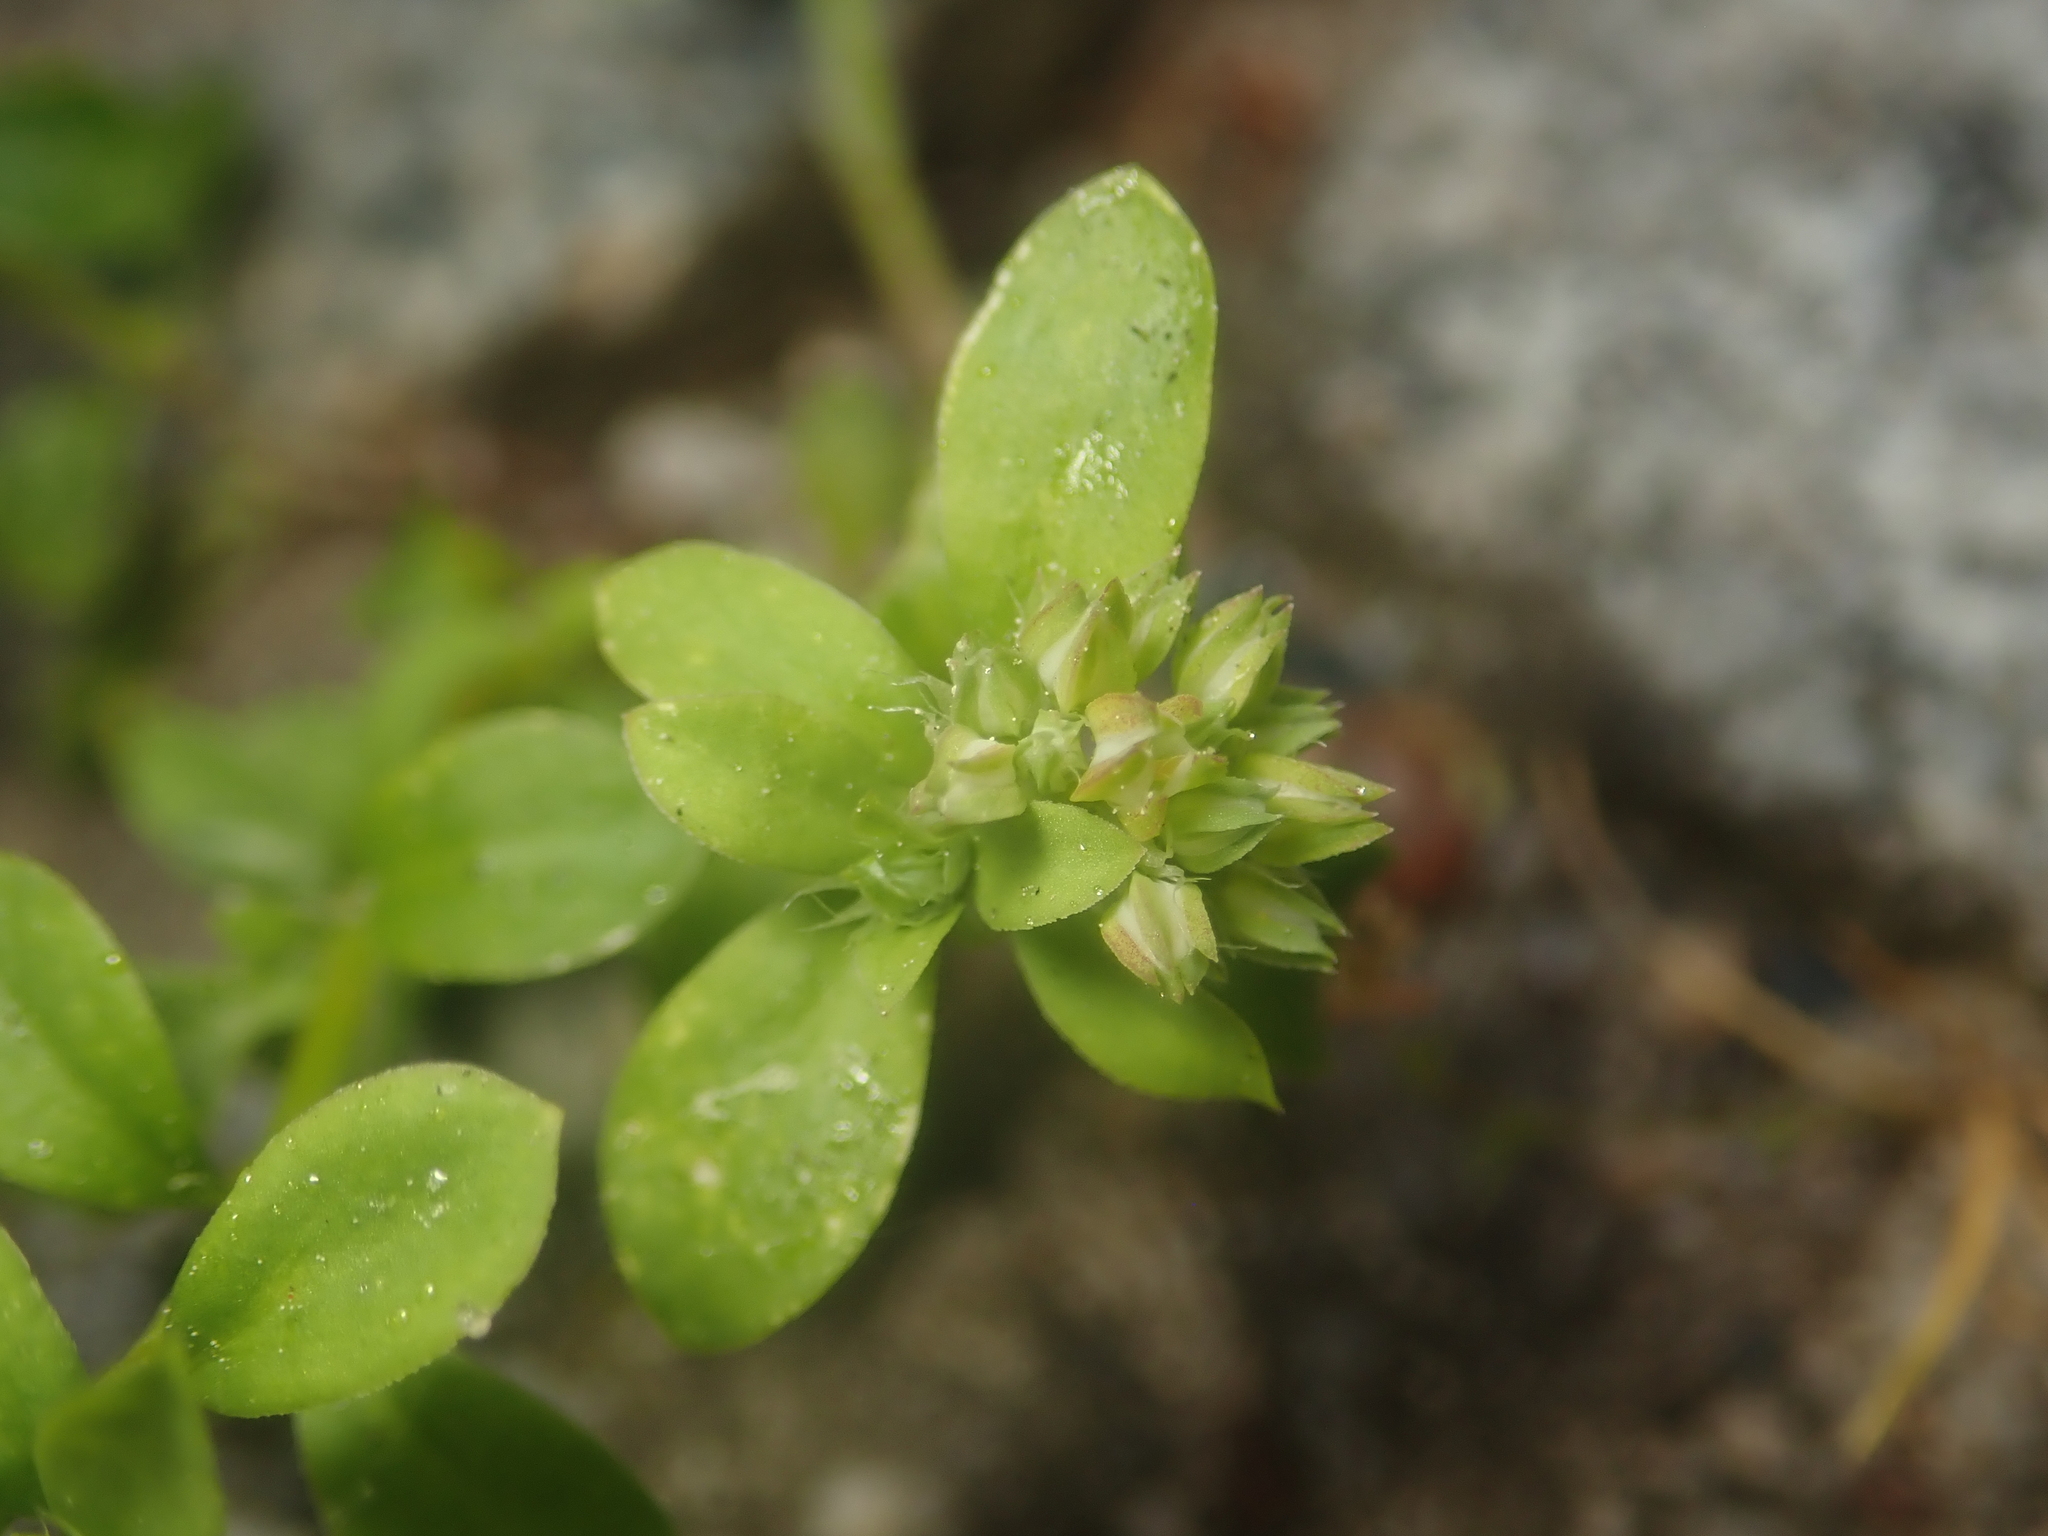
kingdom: Plantae
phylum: Tracheophyta
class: Magnoliopsida
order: Caryophyllales
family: Caryophyllaceae
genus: Polycarpon
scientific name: Polycarpon tetraphyllum
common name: Four-leaved all-seed
